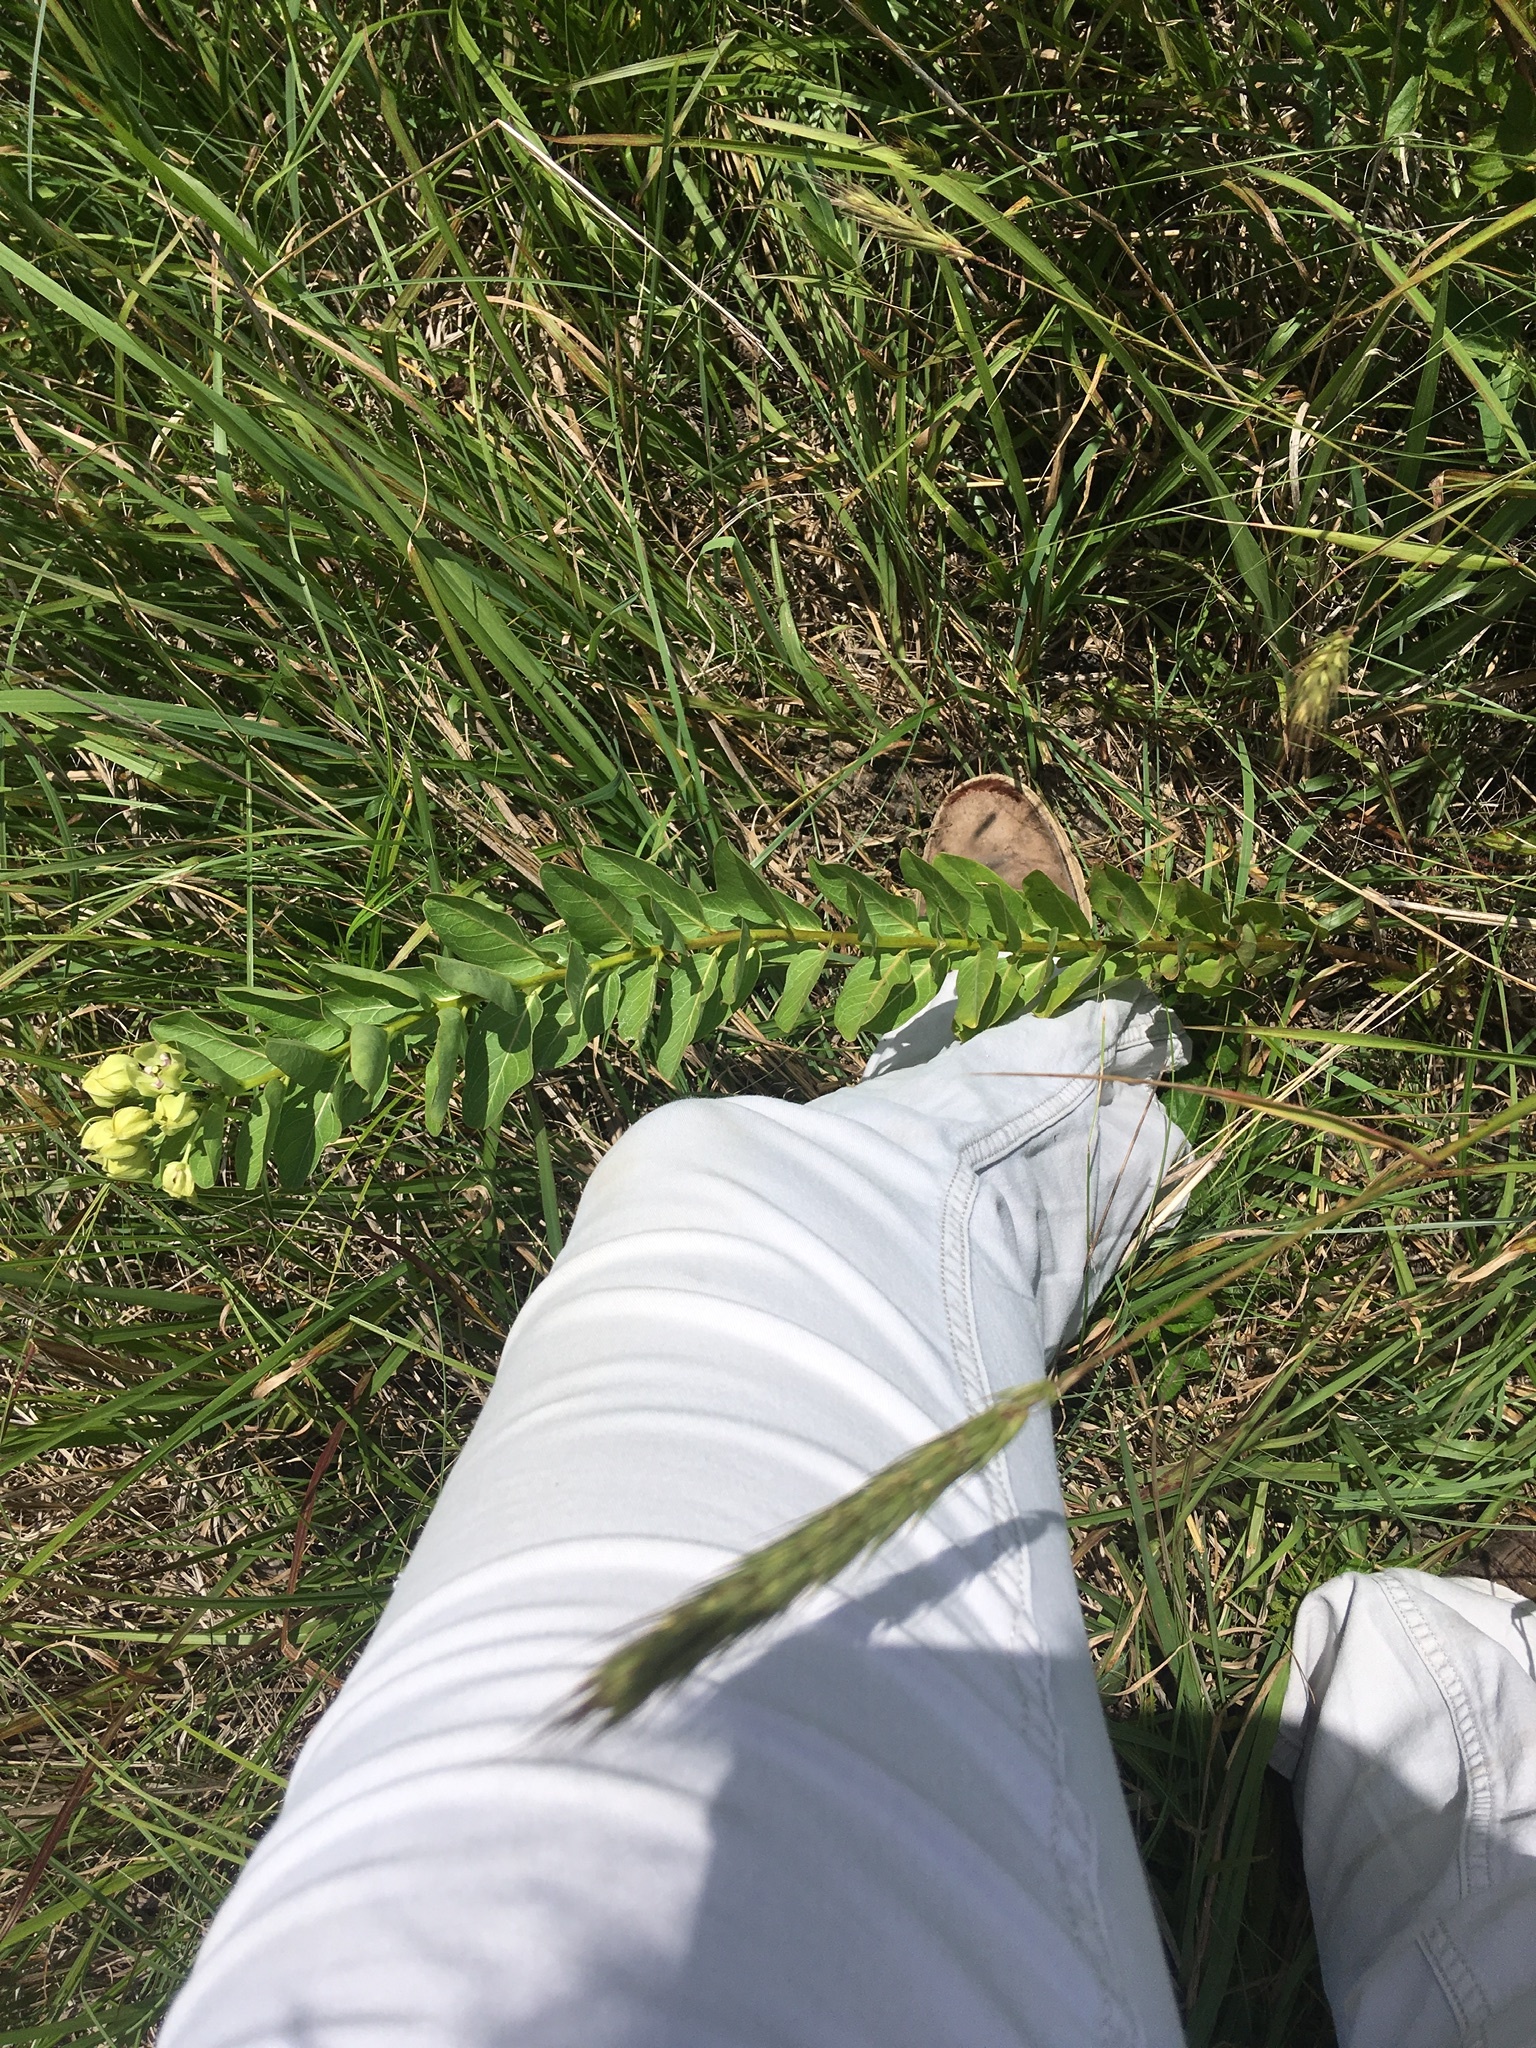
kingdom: Plantae
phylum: Tracheophyta
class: Magnoliopsida
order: Gentianales
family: Apocynaceae
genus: Asclepias
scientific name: Asclepias viridis
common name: Antelope-horns
